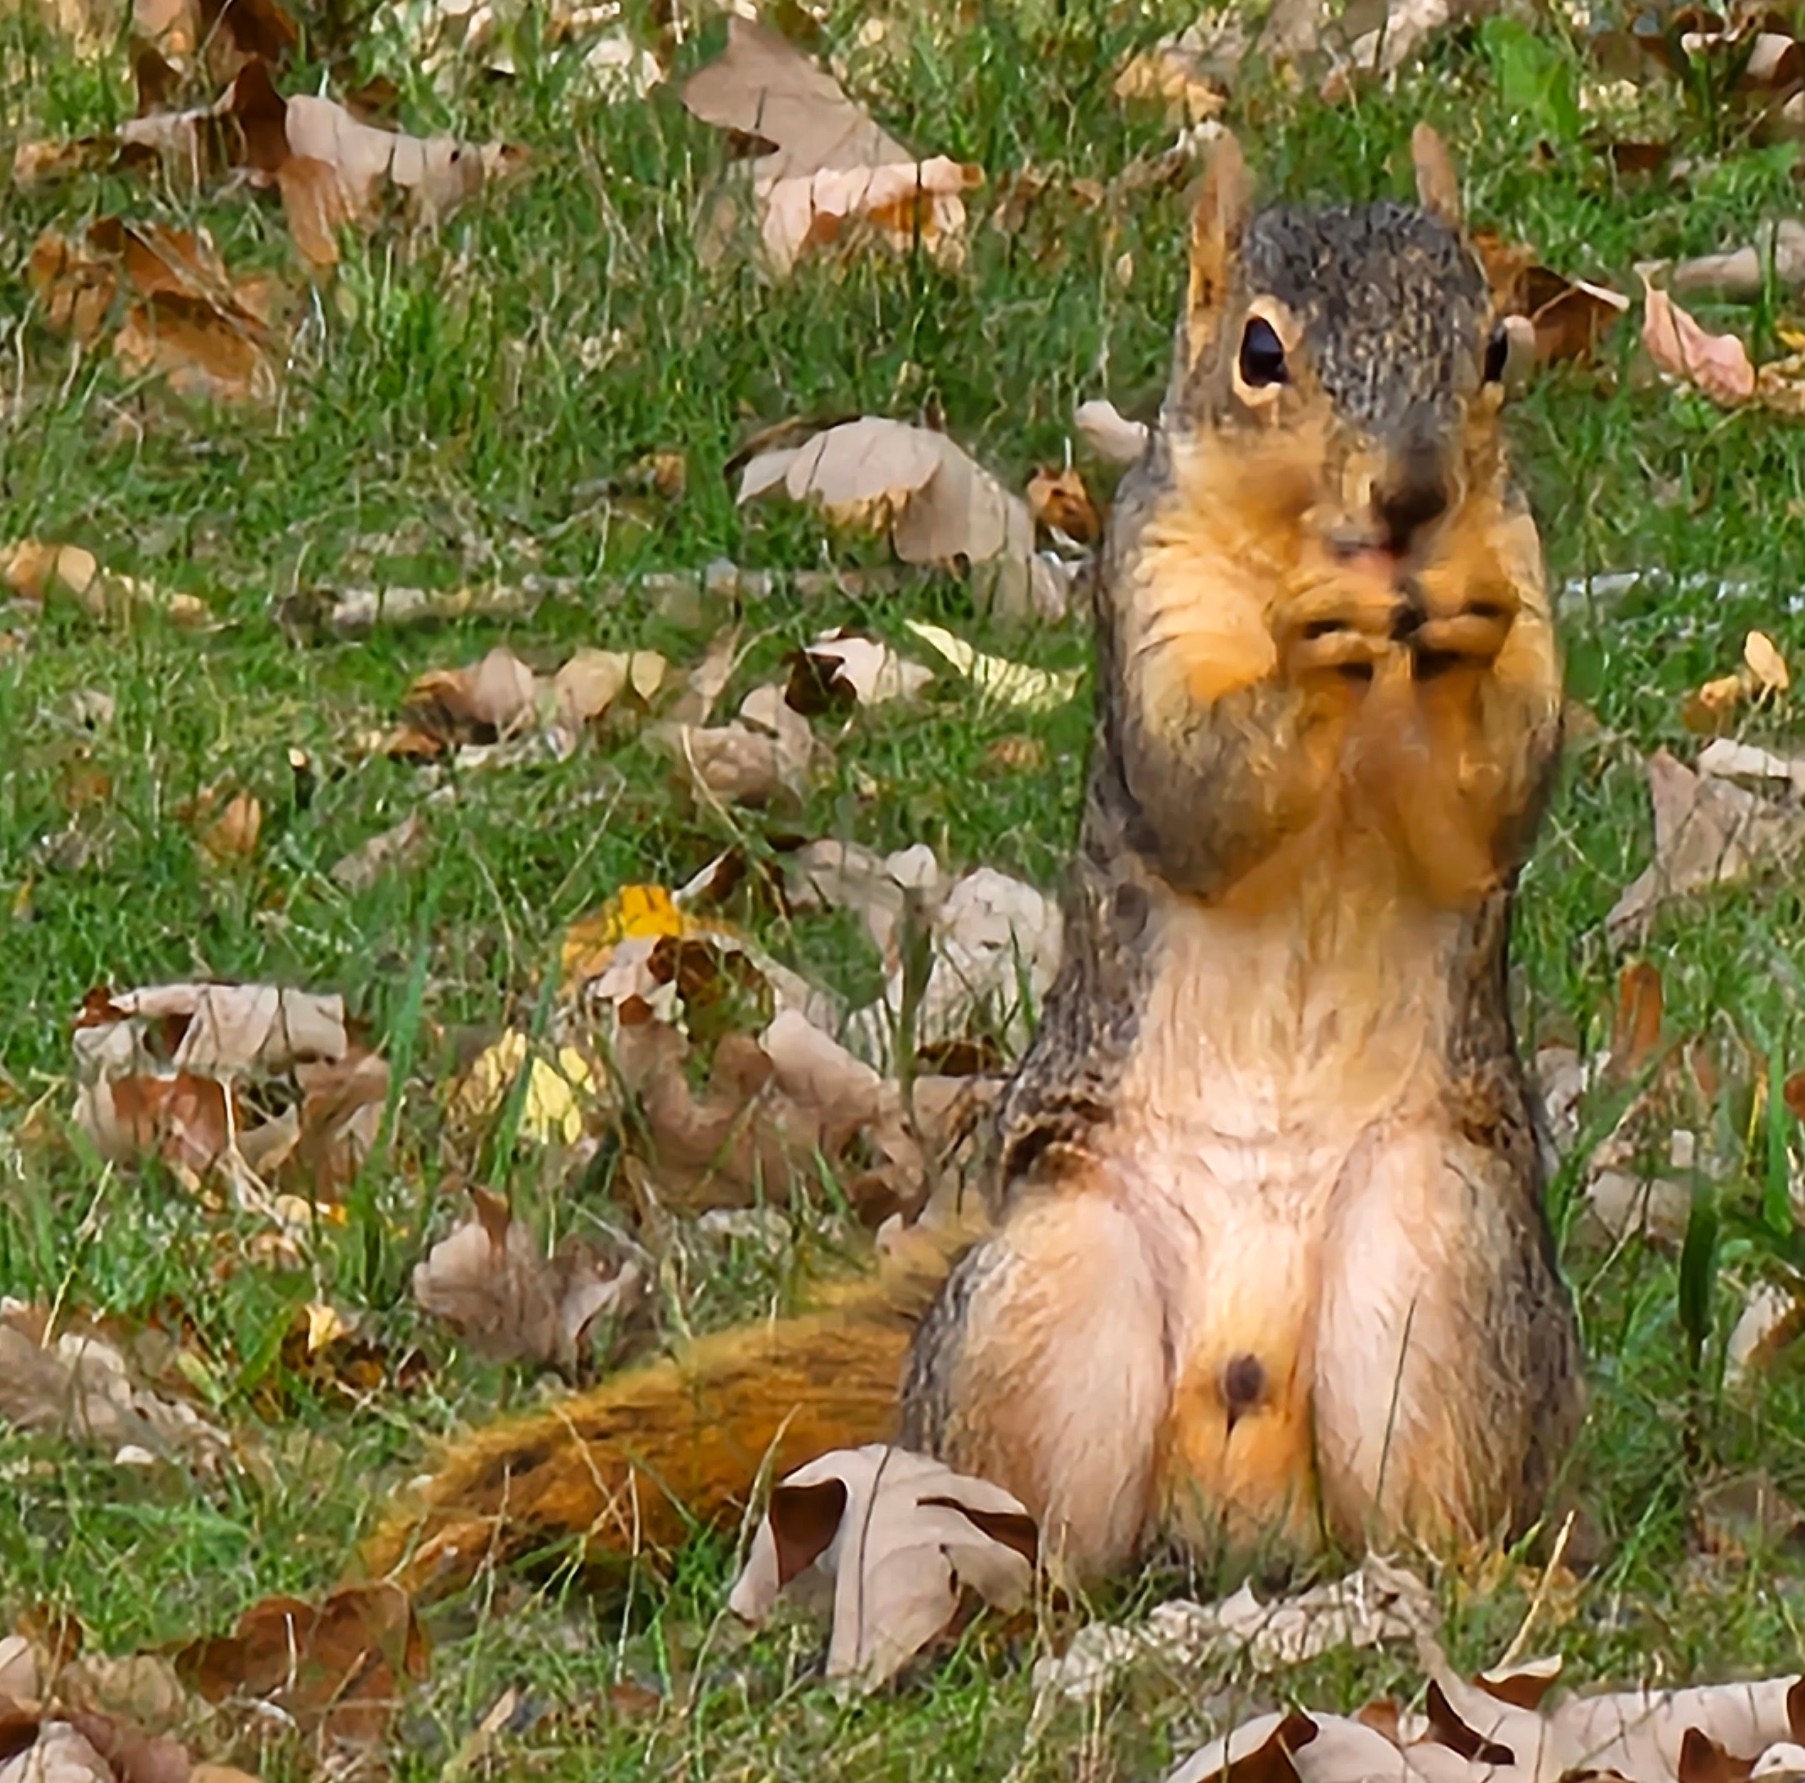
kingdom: Animalia
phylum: Chordata
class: Mammalia
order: Rodentia
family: Sciuridae
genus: Sciurus
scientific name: Sciurus niger
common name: Fox squirrel
